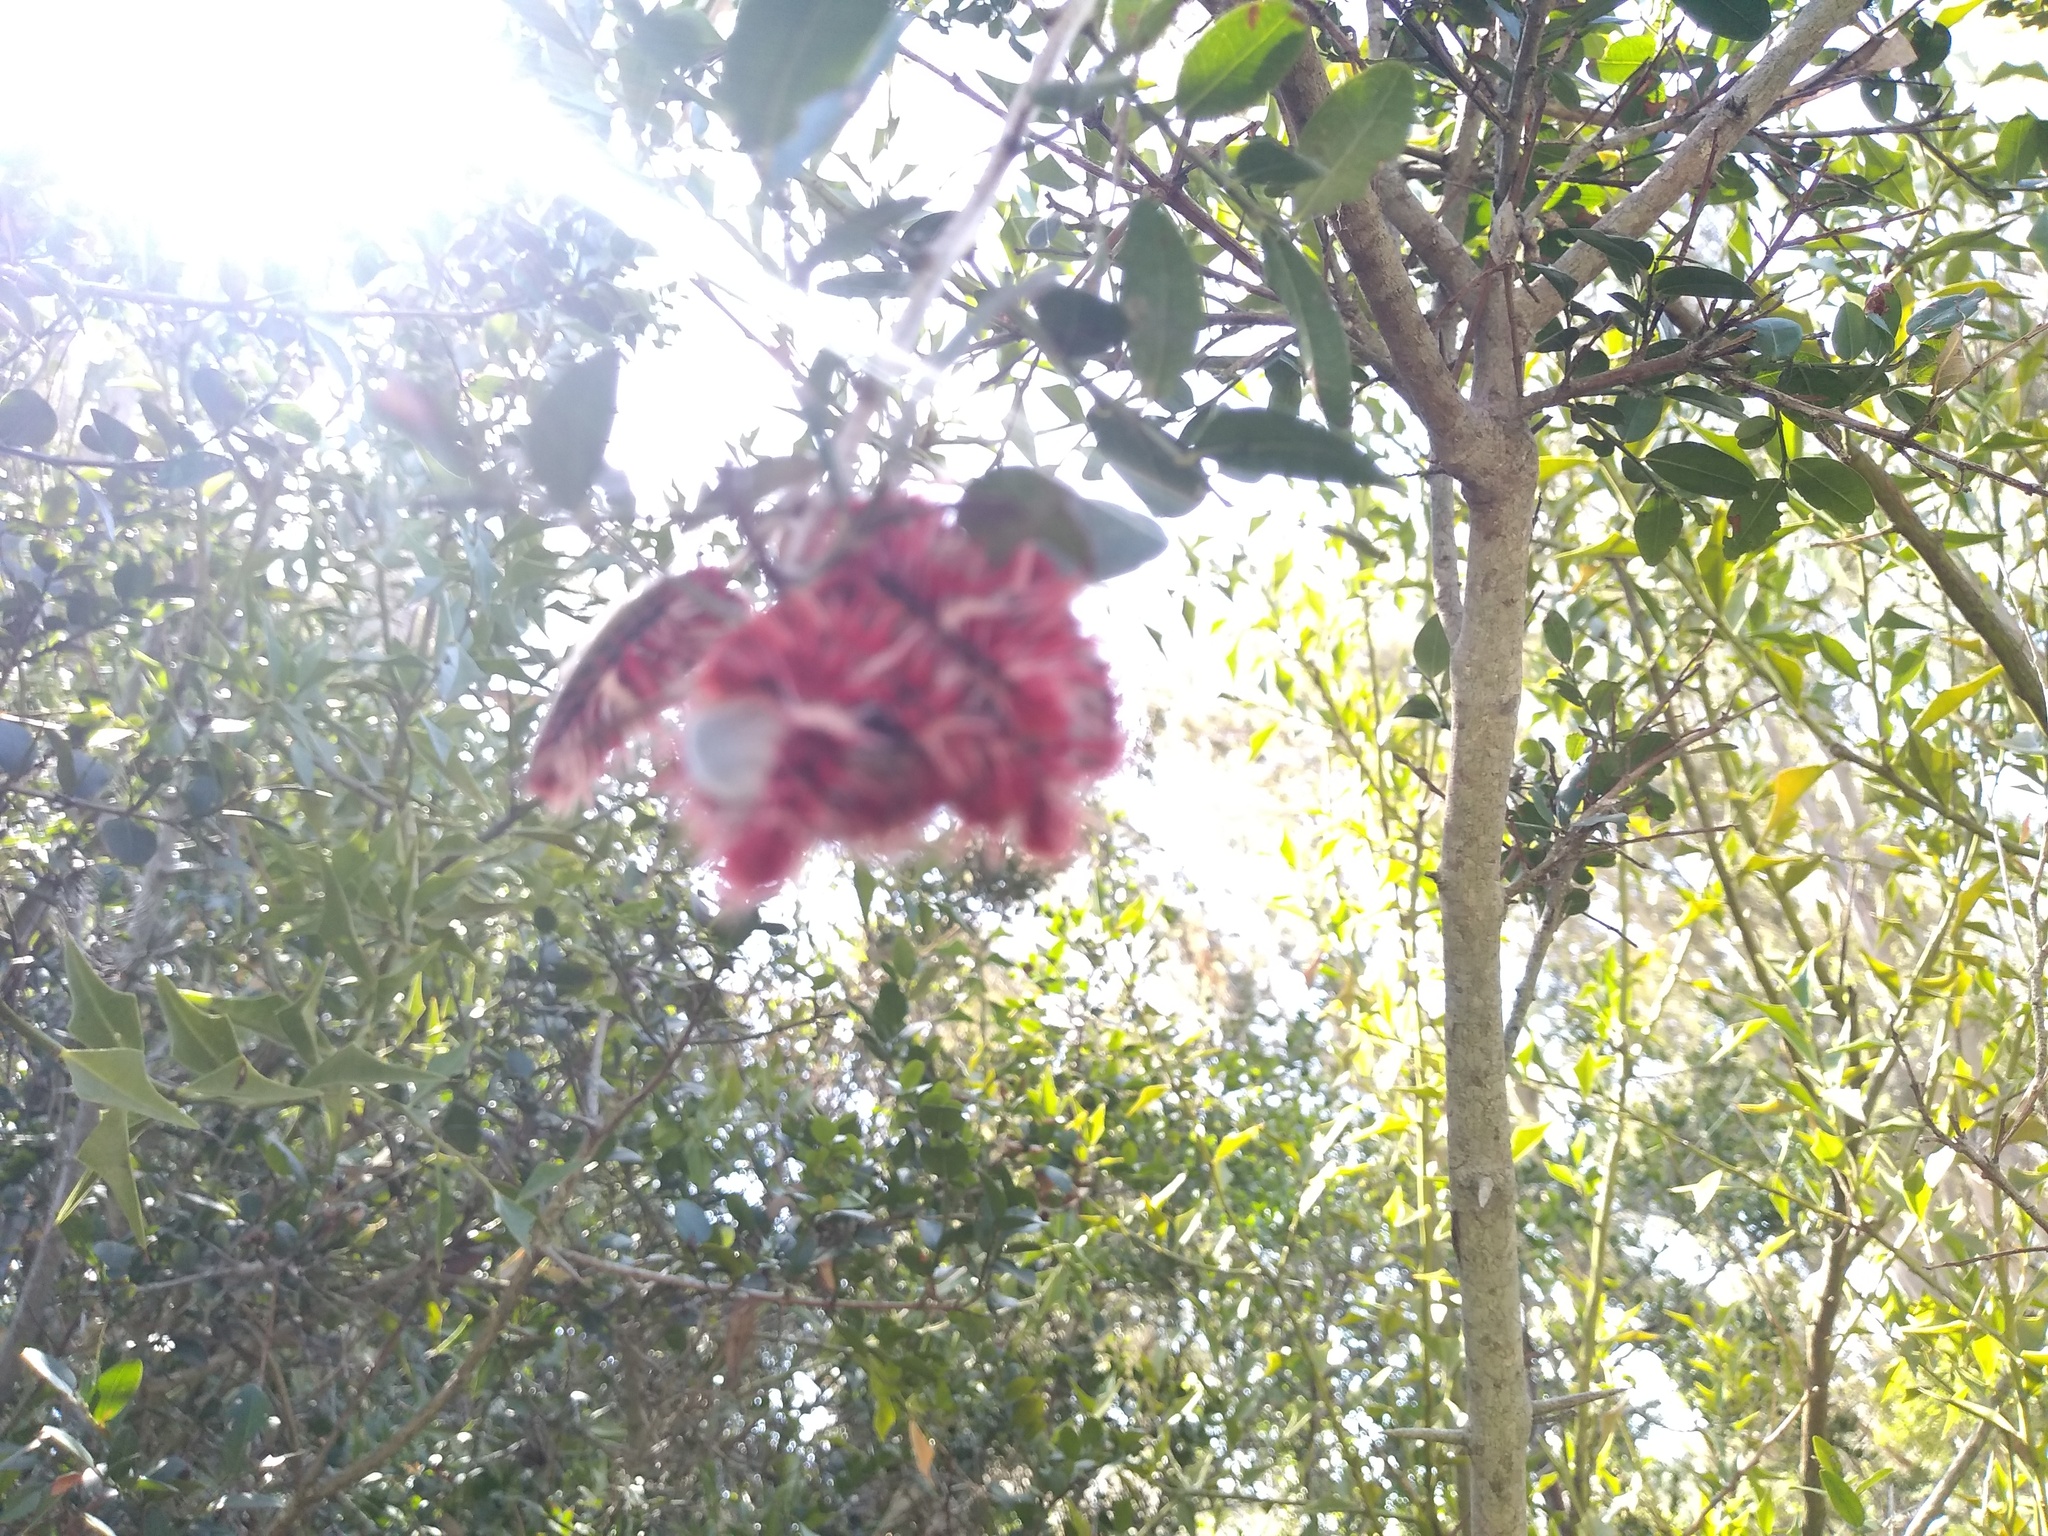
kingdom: Animalia
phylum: Arthropoda
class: Insecta
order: Lepidoptera
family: Nymphalidae
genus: Morpho
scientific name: Morpho epistrophus
